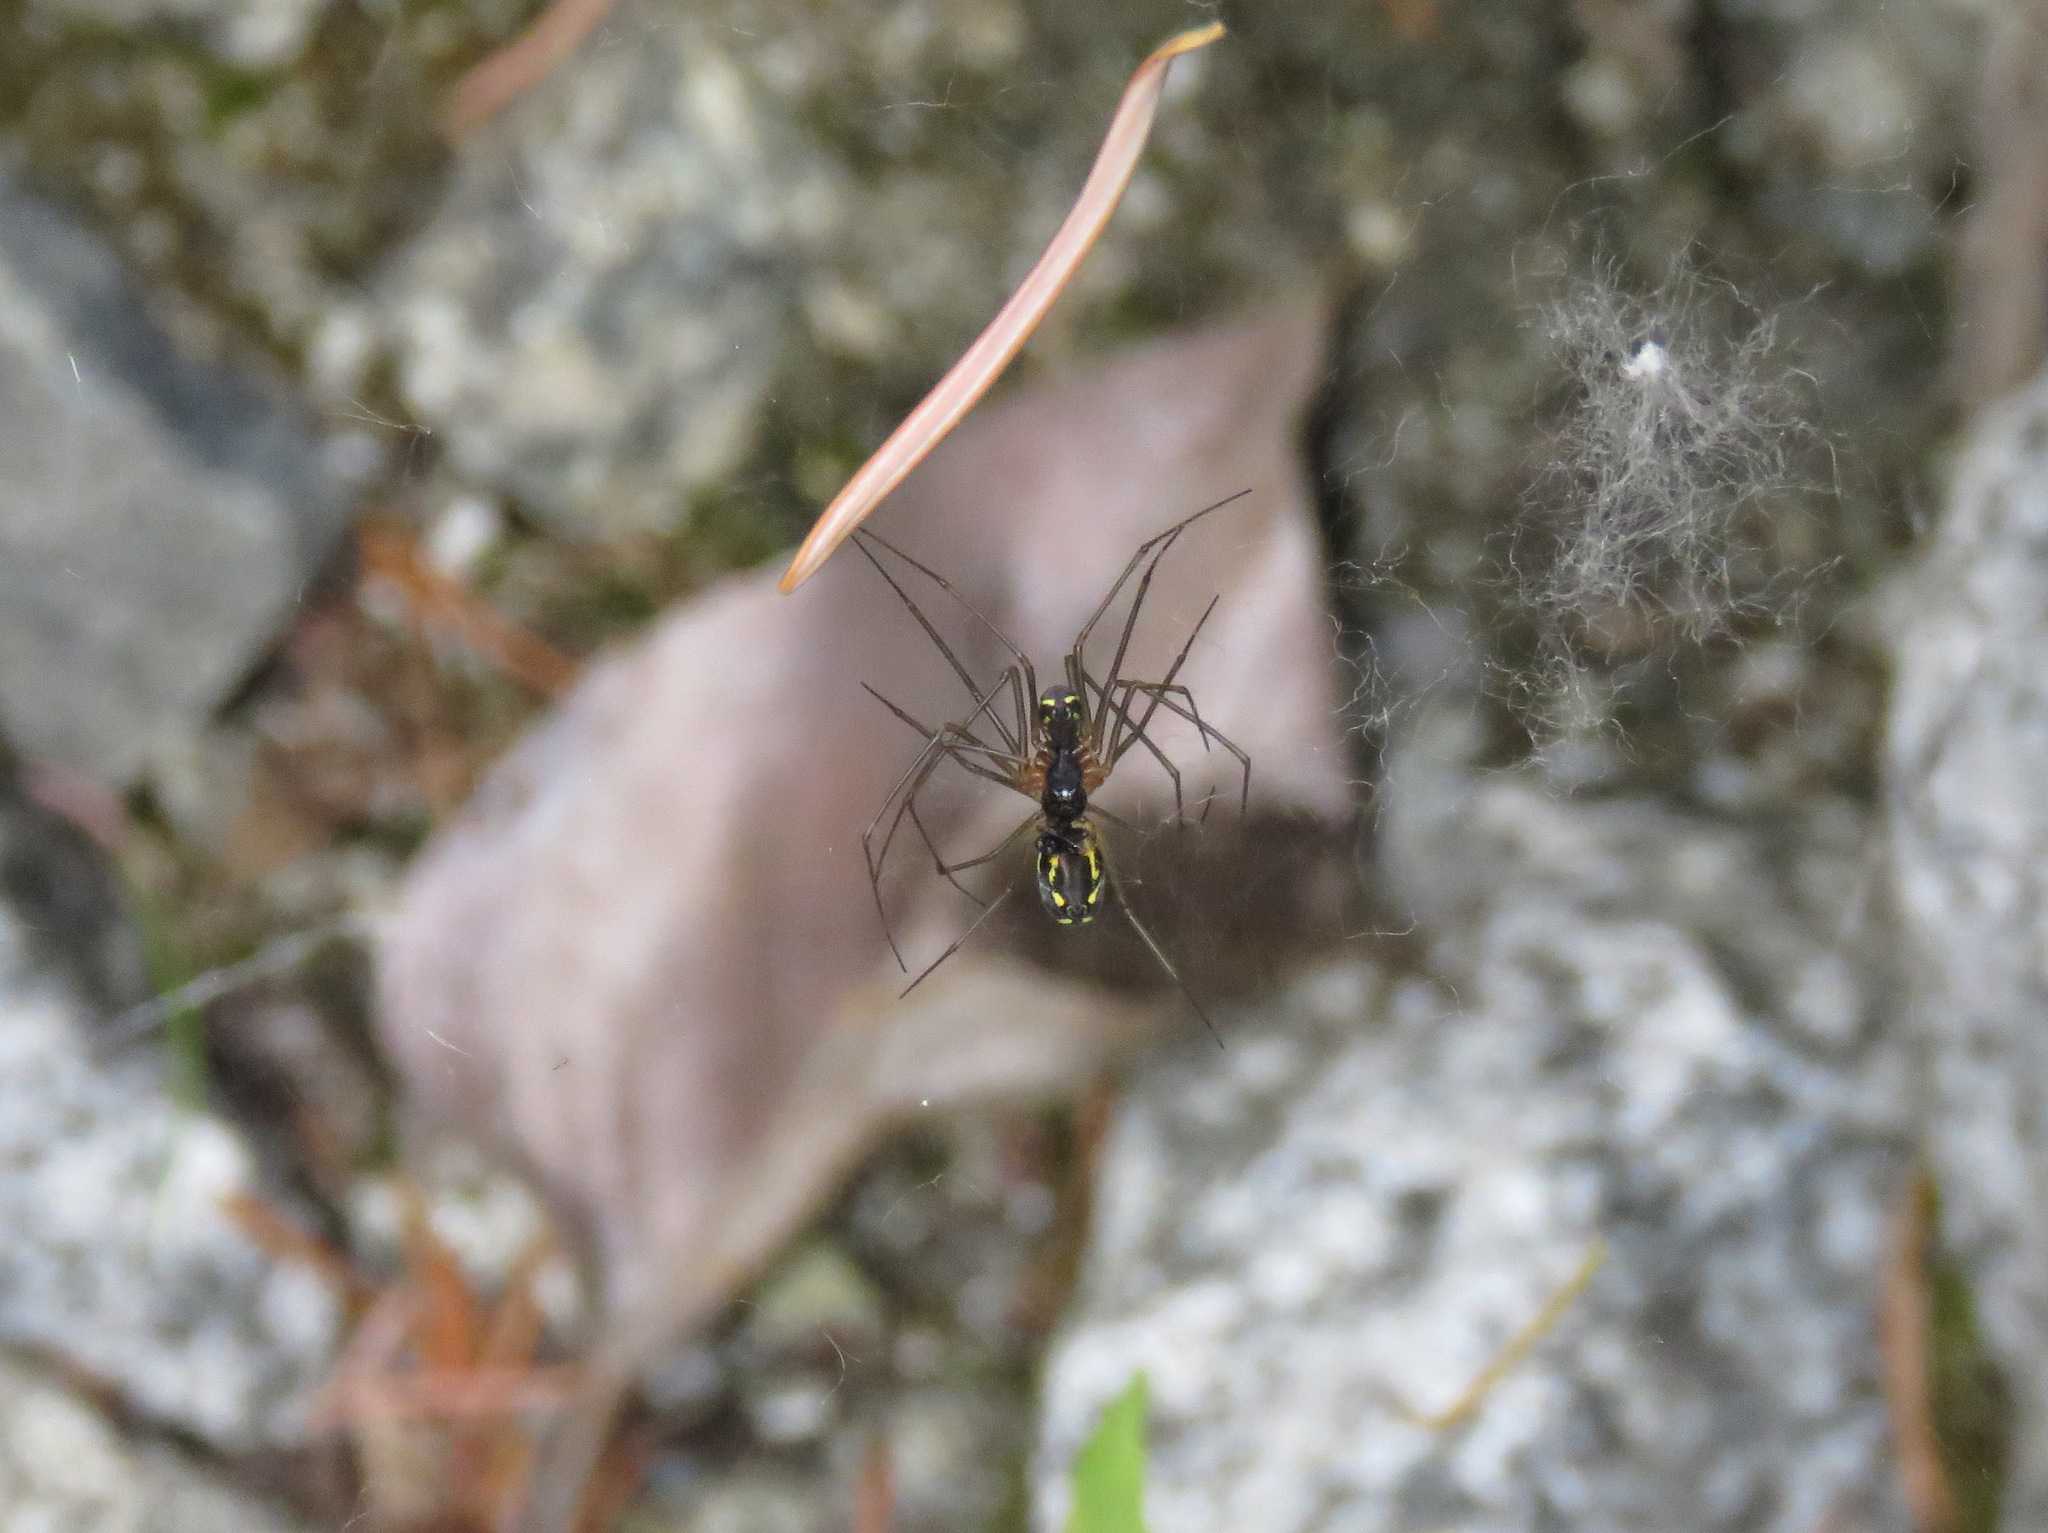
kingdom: Animalia
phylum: Arthropoda
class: Arachnida
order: Araneae
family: Linyphiidae
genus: Neriene
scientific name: Neriene radiata
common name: Filmy dome spider
